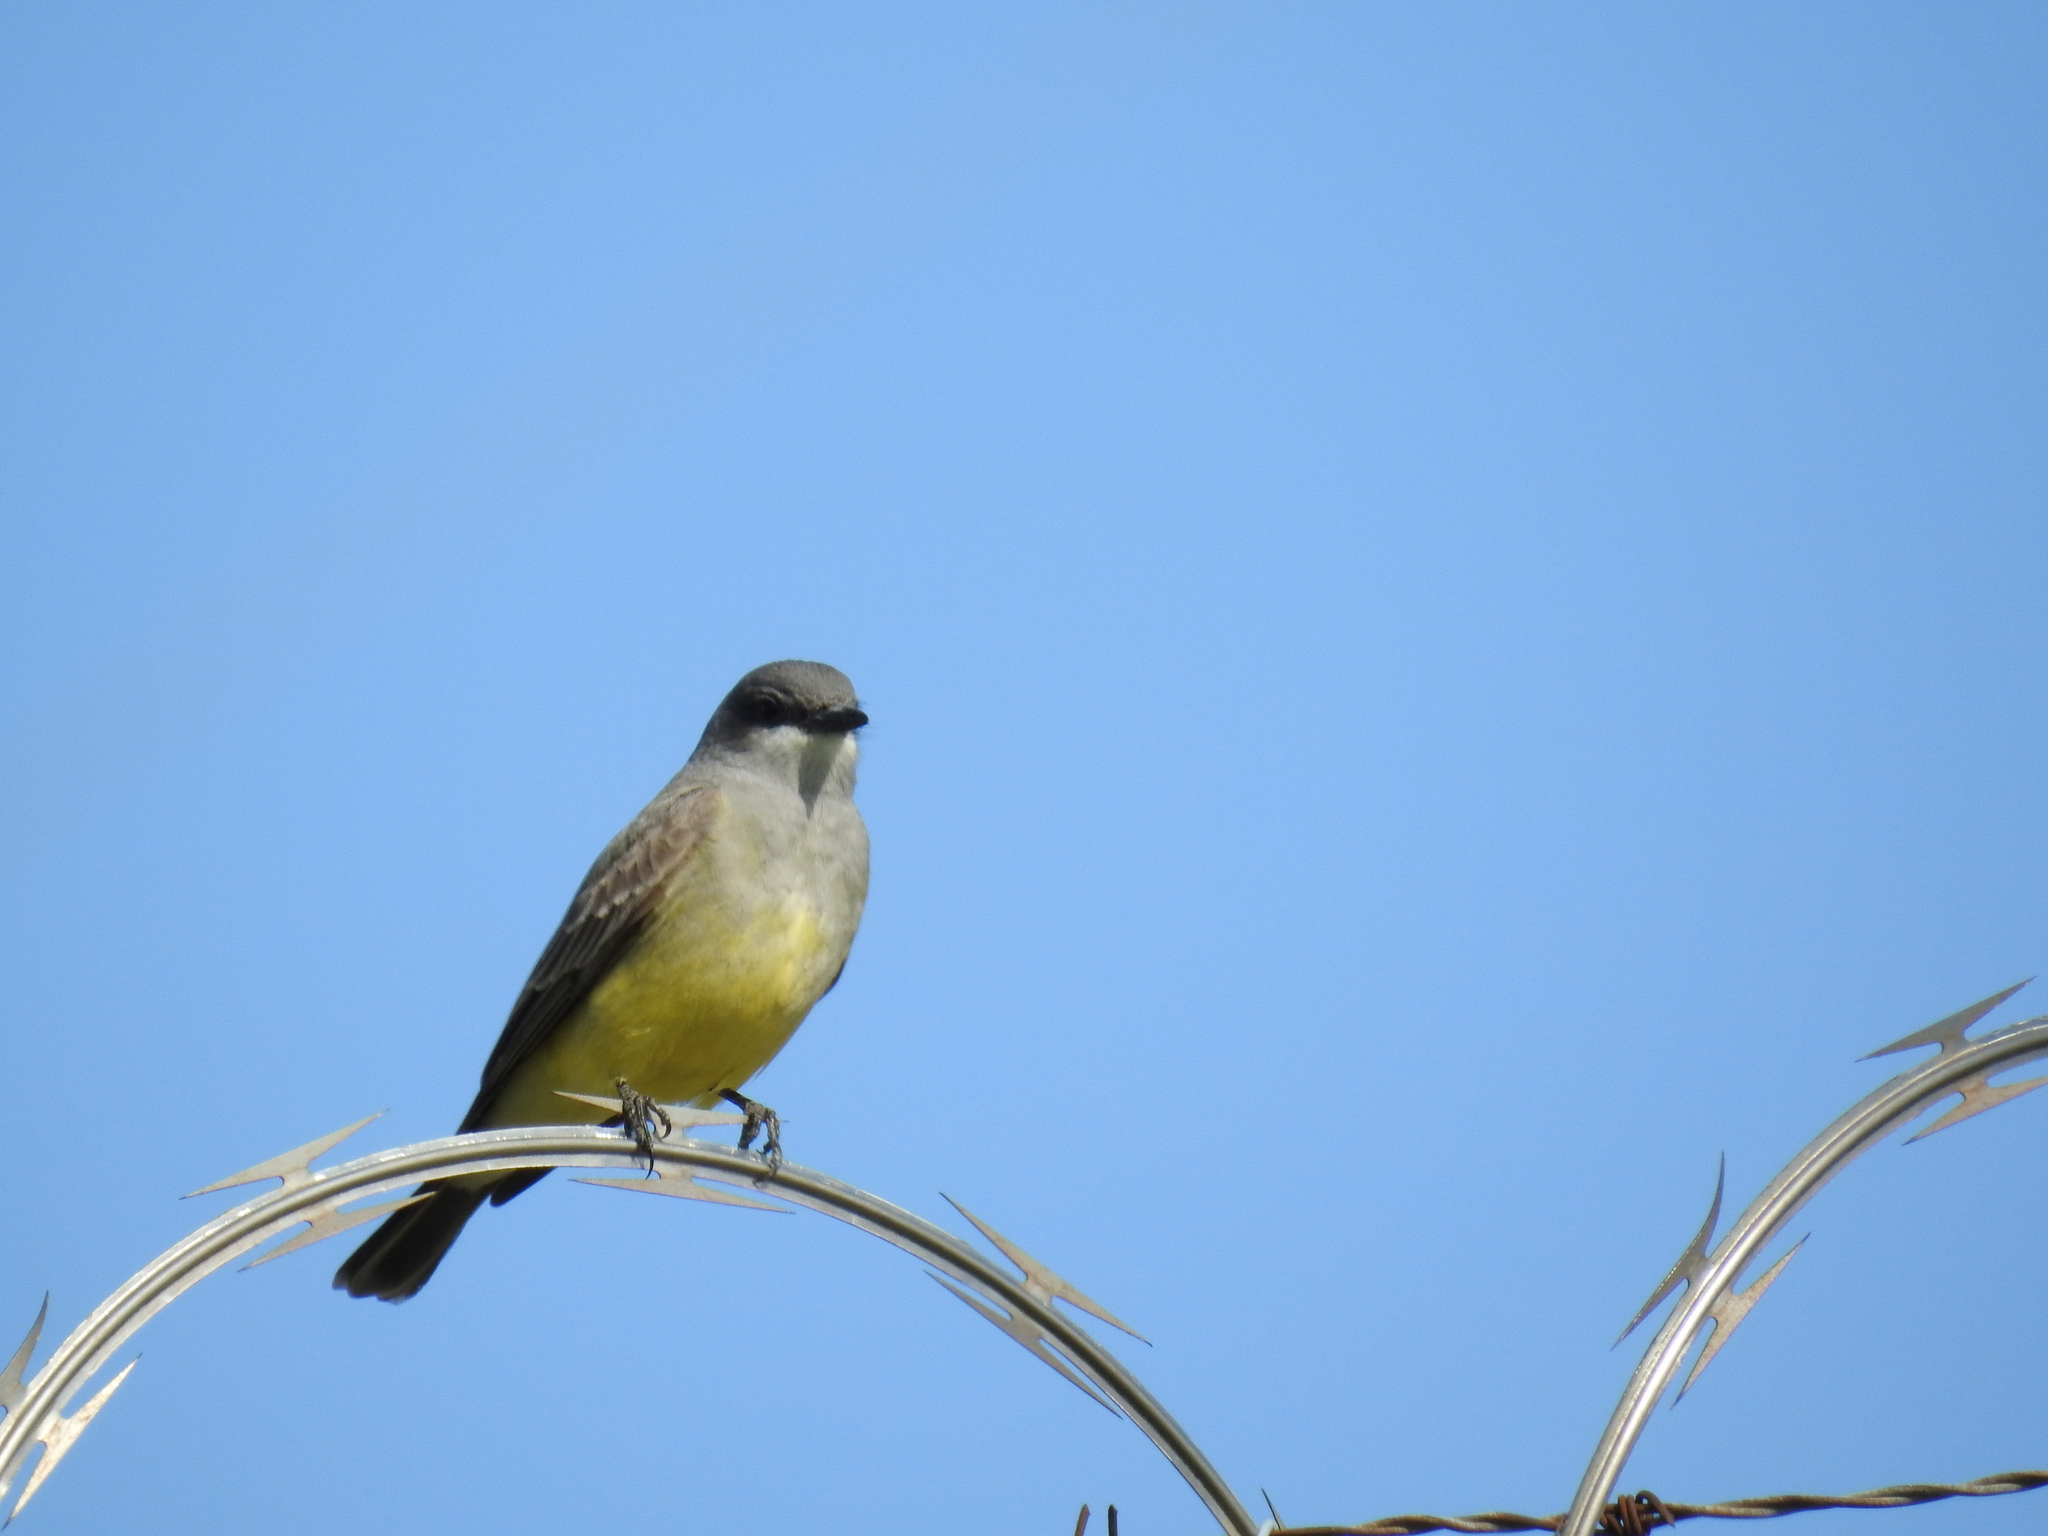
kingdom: Animalia
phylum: Chordata
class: Aves
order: Passeriformes
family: Tyrannidae
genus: Tyrannus
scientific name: Tyrannus vociferans
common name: Cassin's kingbird
